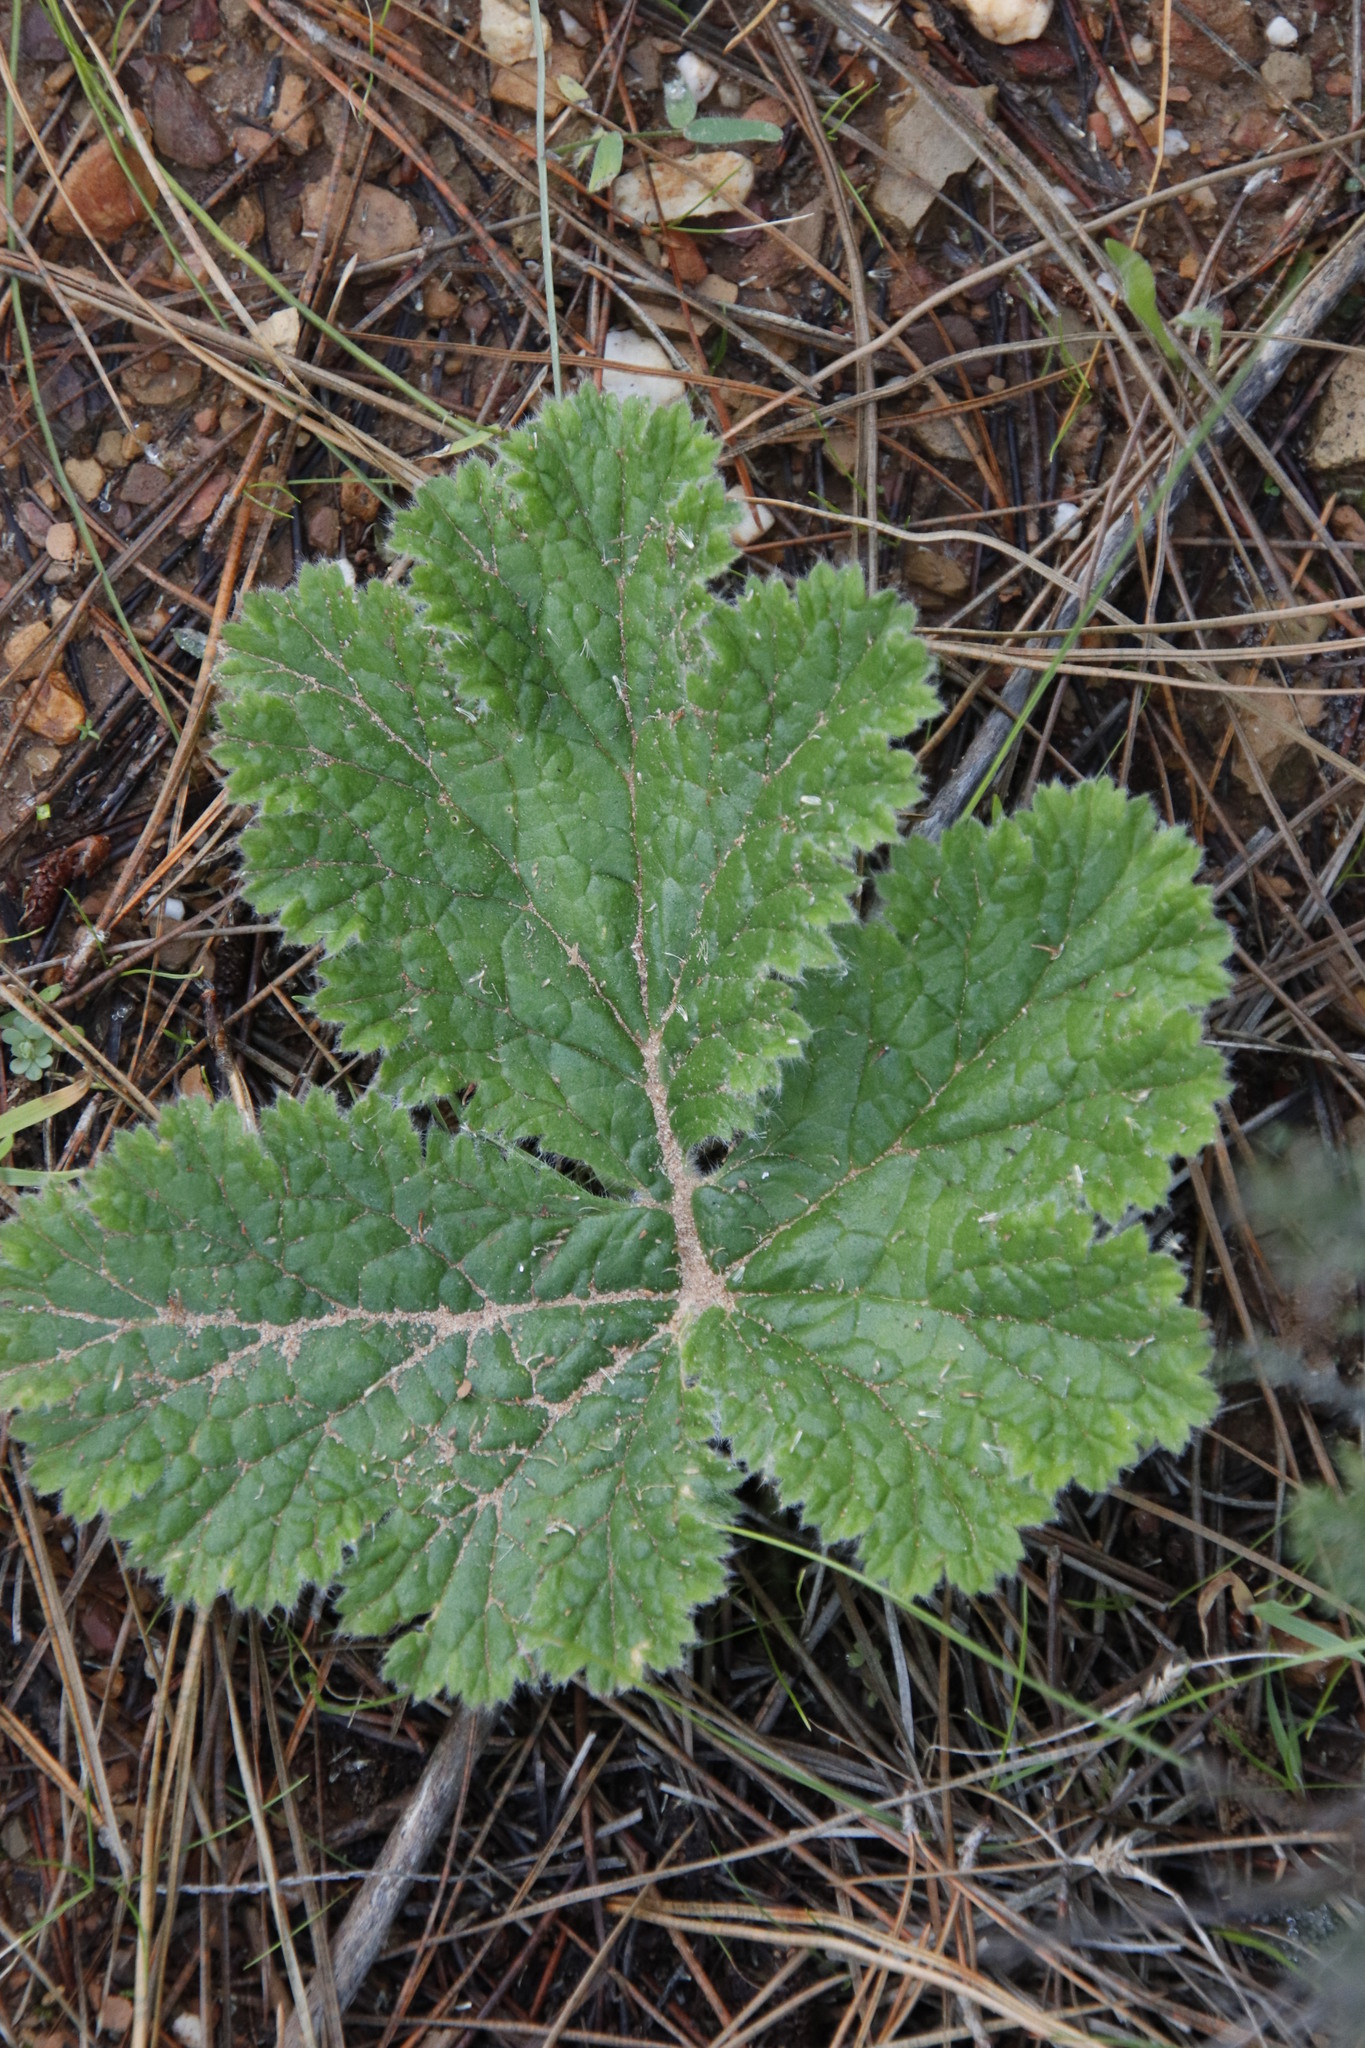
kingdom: Plantae
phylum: Tracheophyta
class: Magnoliopsida
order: Geraniales
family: Geraniaceae
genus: Pelargonium
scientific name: Pelargonium lobatum
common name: Vine-leaf pelargonium
